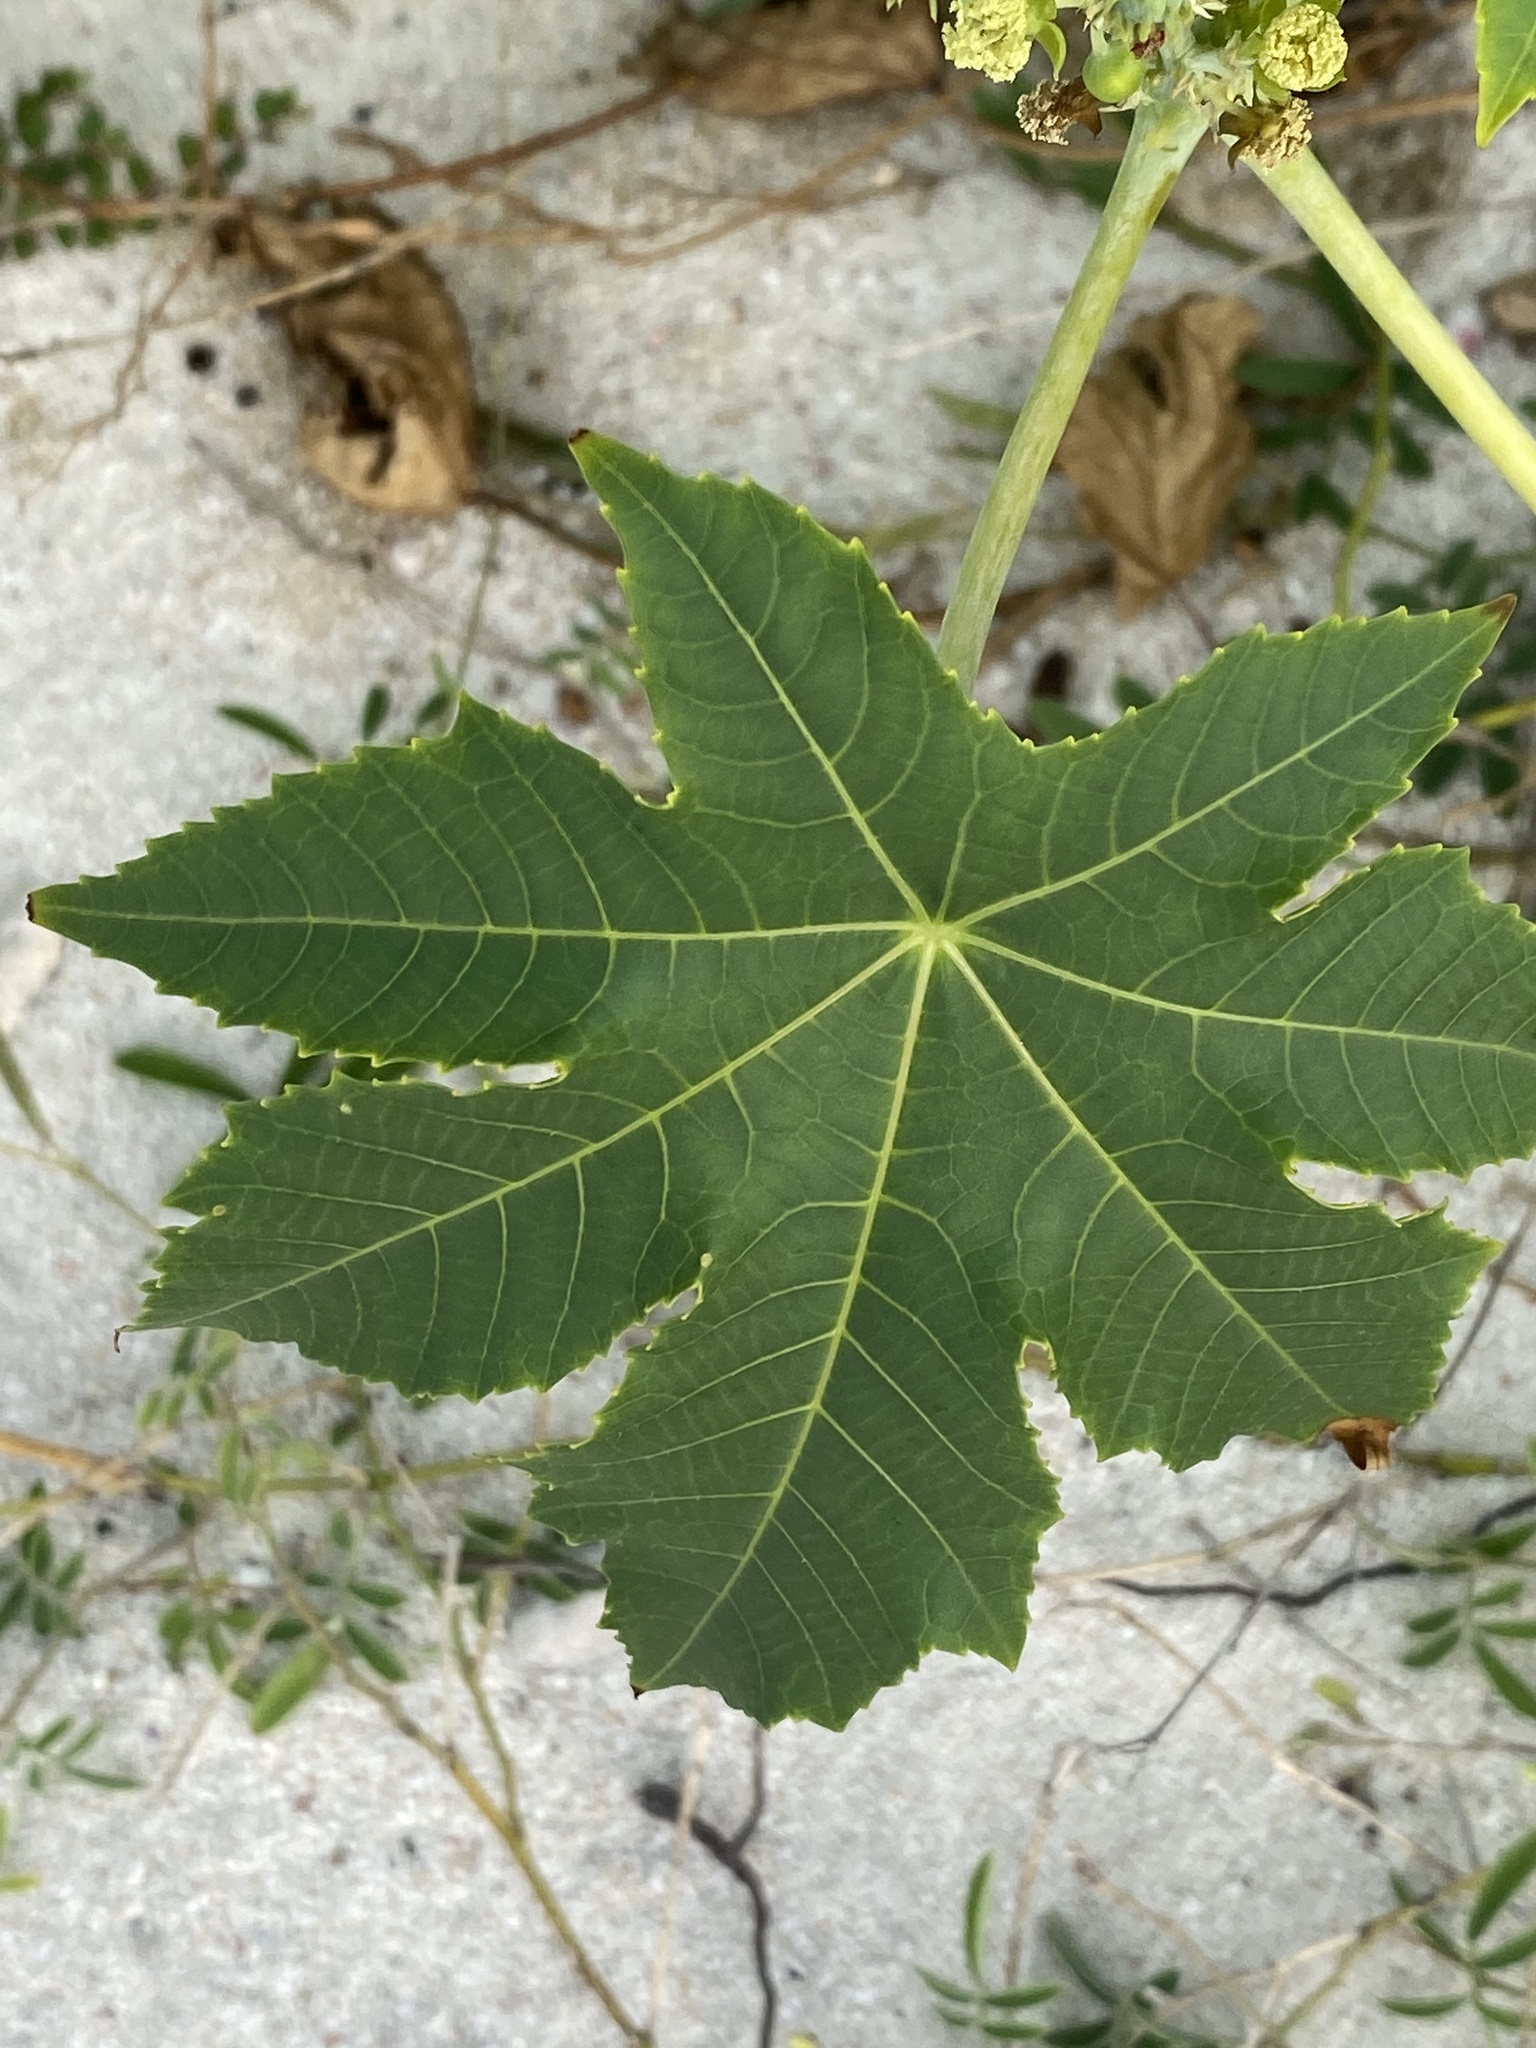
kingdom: Plantae
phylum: Tracheophyta
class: Magnoliopsida
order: Malpighiales
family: Euphorbiaceae
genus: Ricinus
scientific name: Ricinus communis
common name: Castor-oil-plant
